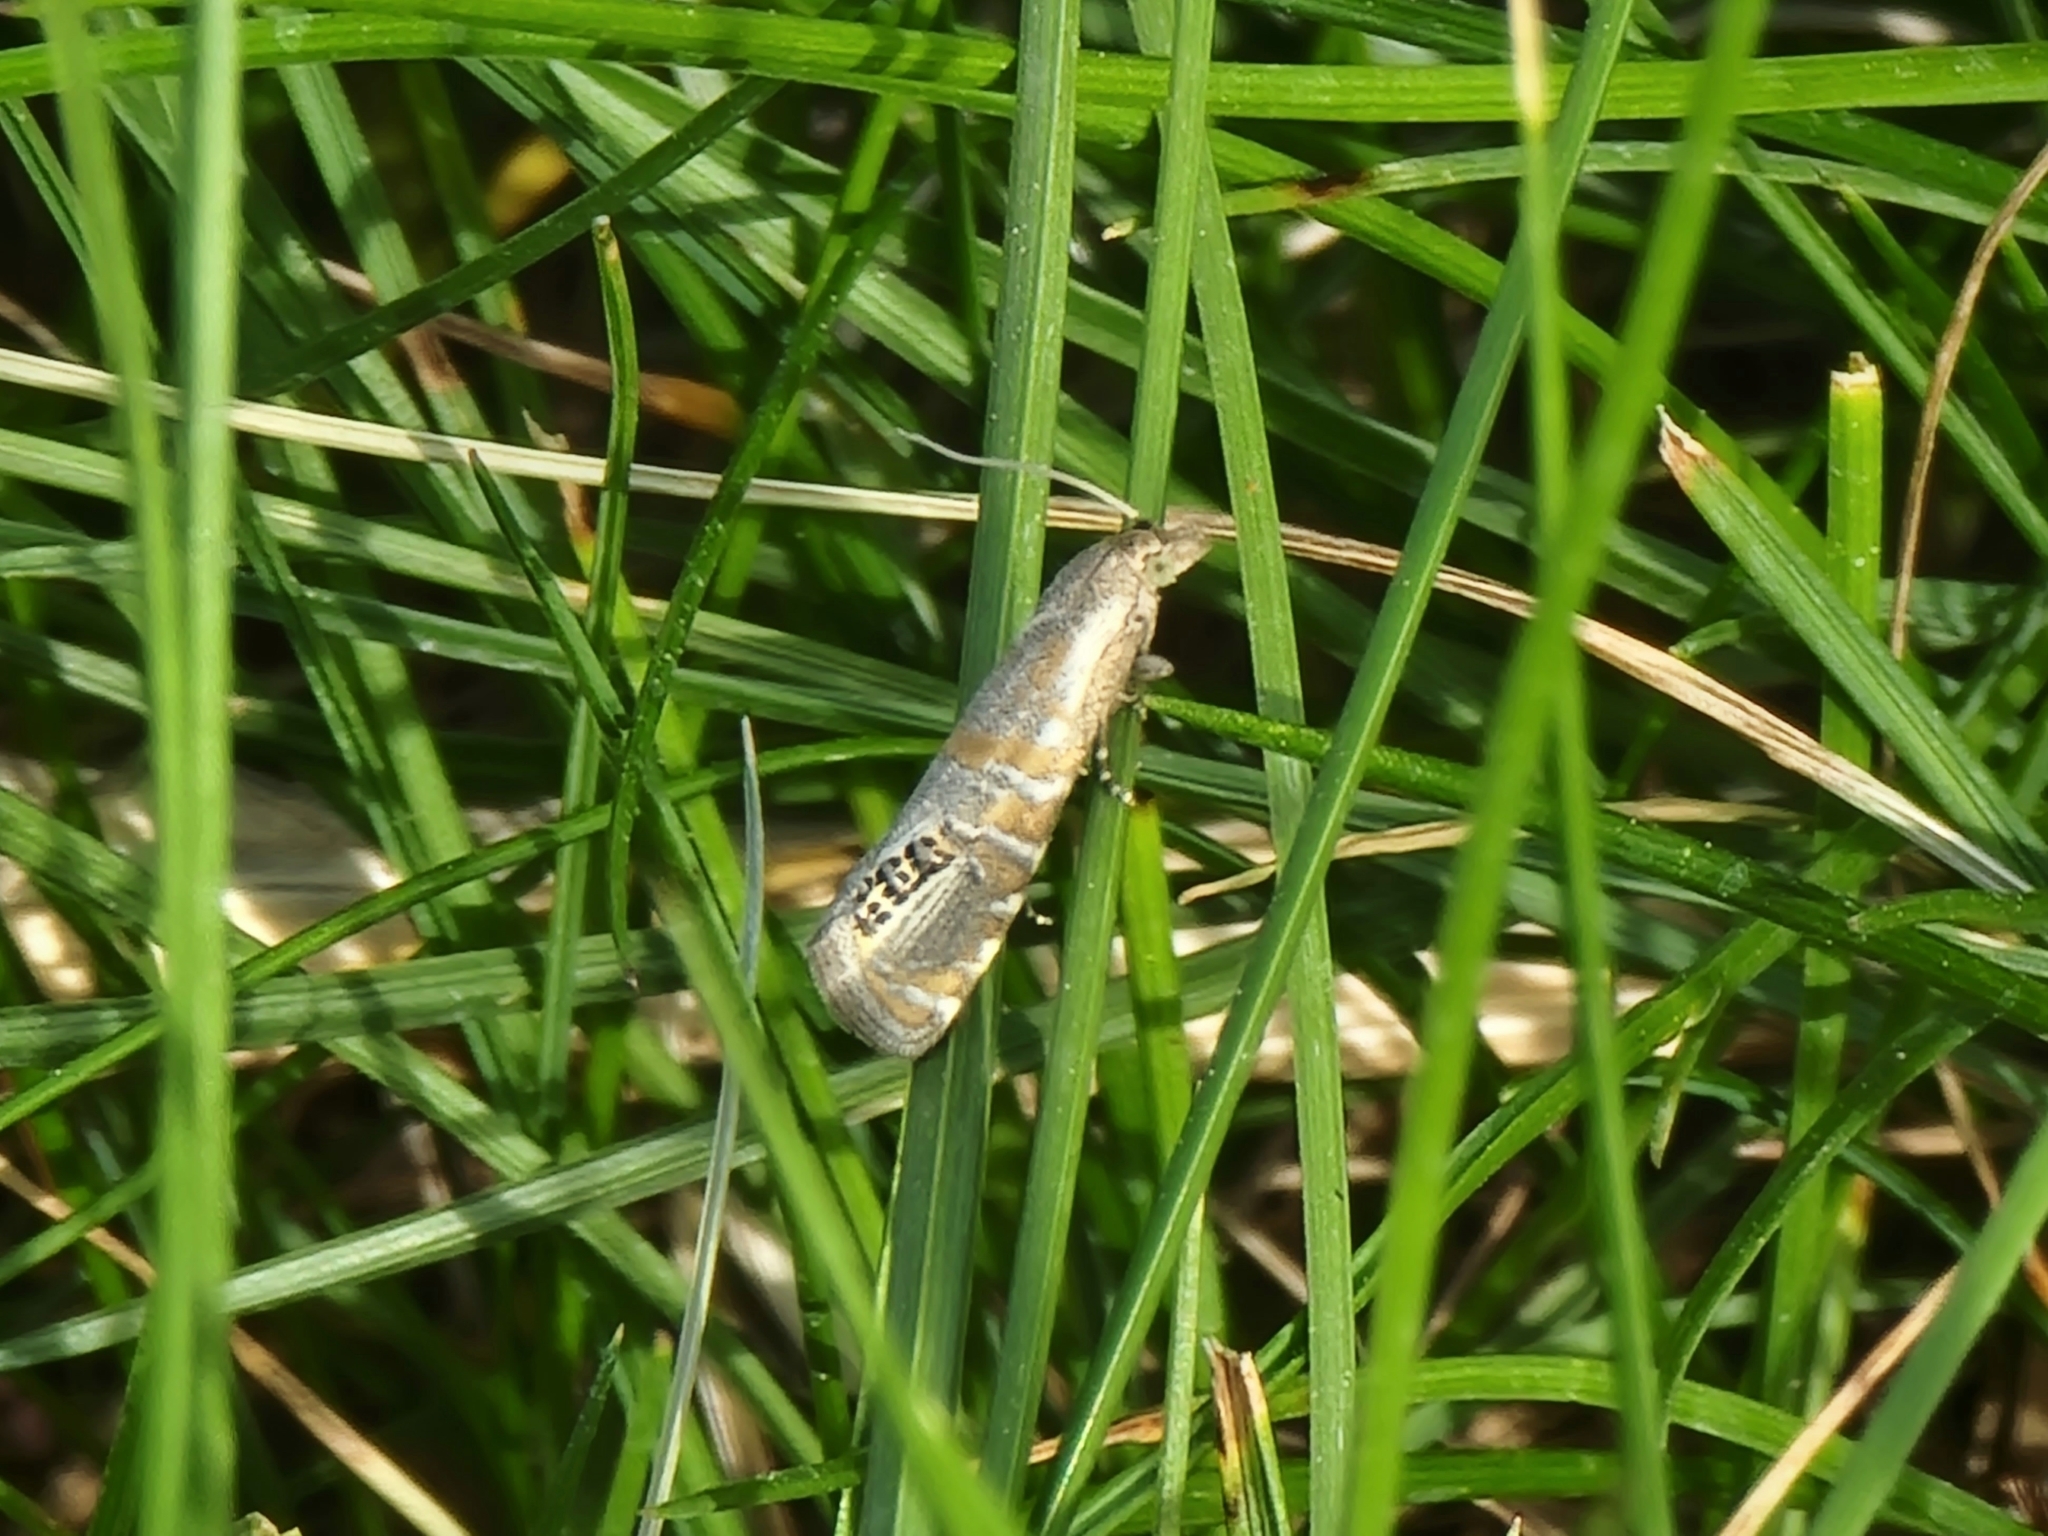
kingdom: Animalia
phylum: Arthropoda
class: Insecta
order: Lepidoptera
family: Tortricidae
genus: Pelochrista
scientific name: Pelochrista scintillana
